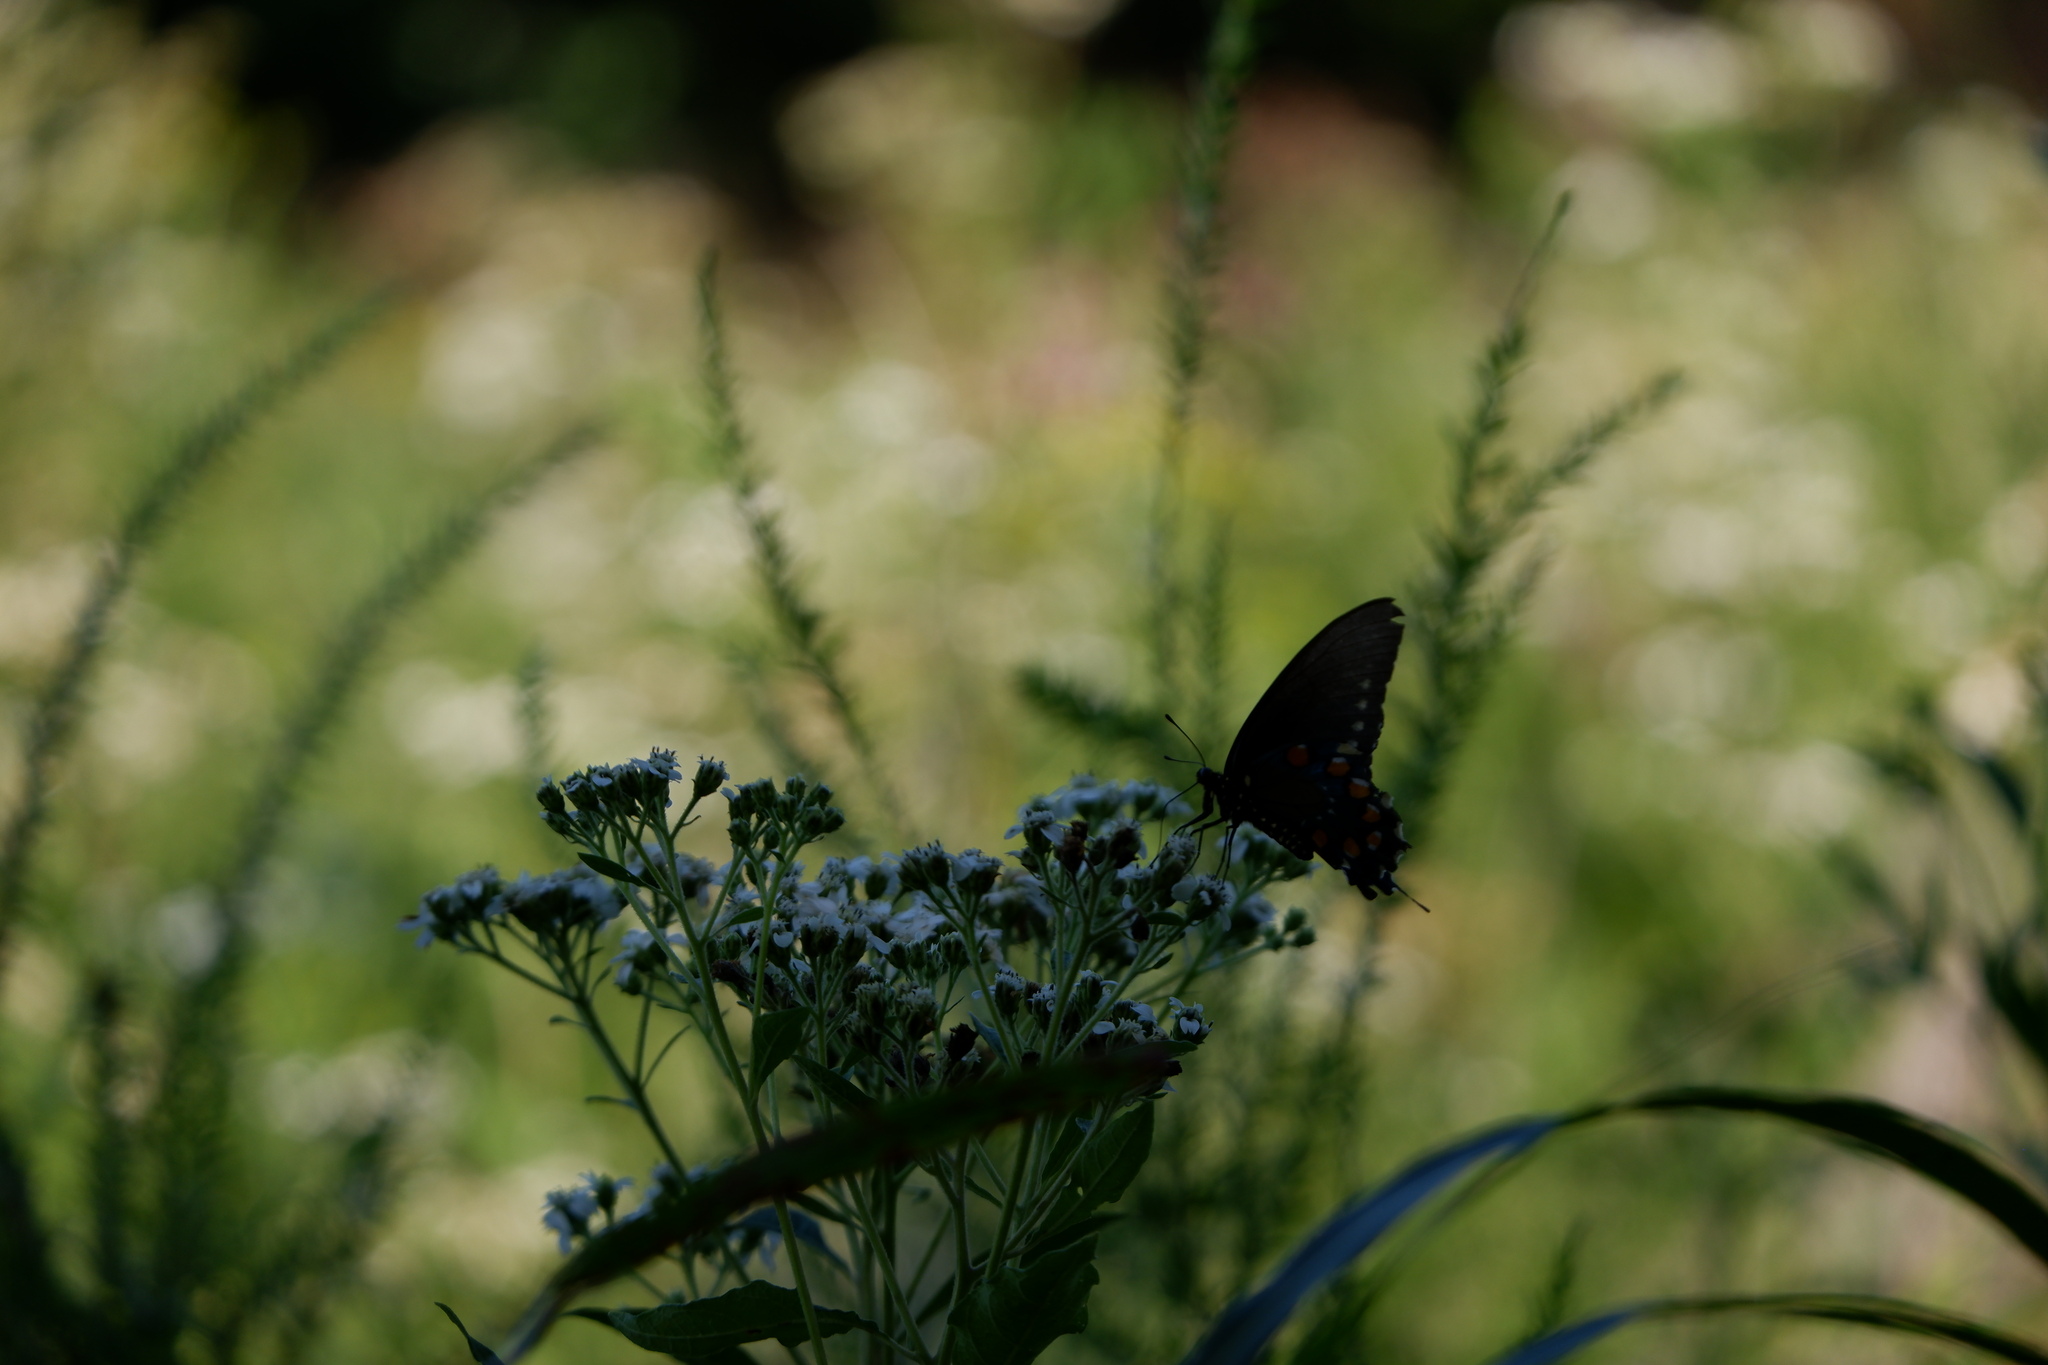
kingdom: Animalia
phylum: Arthropoda
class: Insecta
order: Lepidoptera
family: Papilionidae
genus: Battus
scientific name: Battus philenor
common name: Pipevine swallowtail
